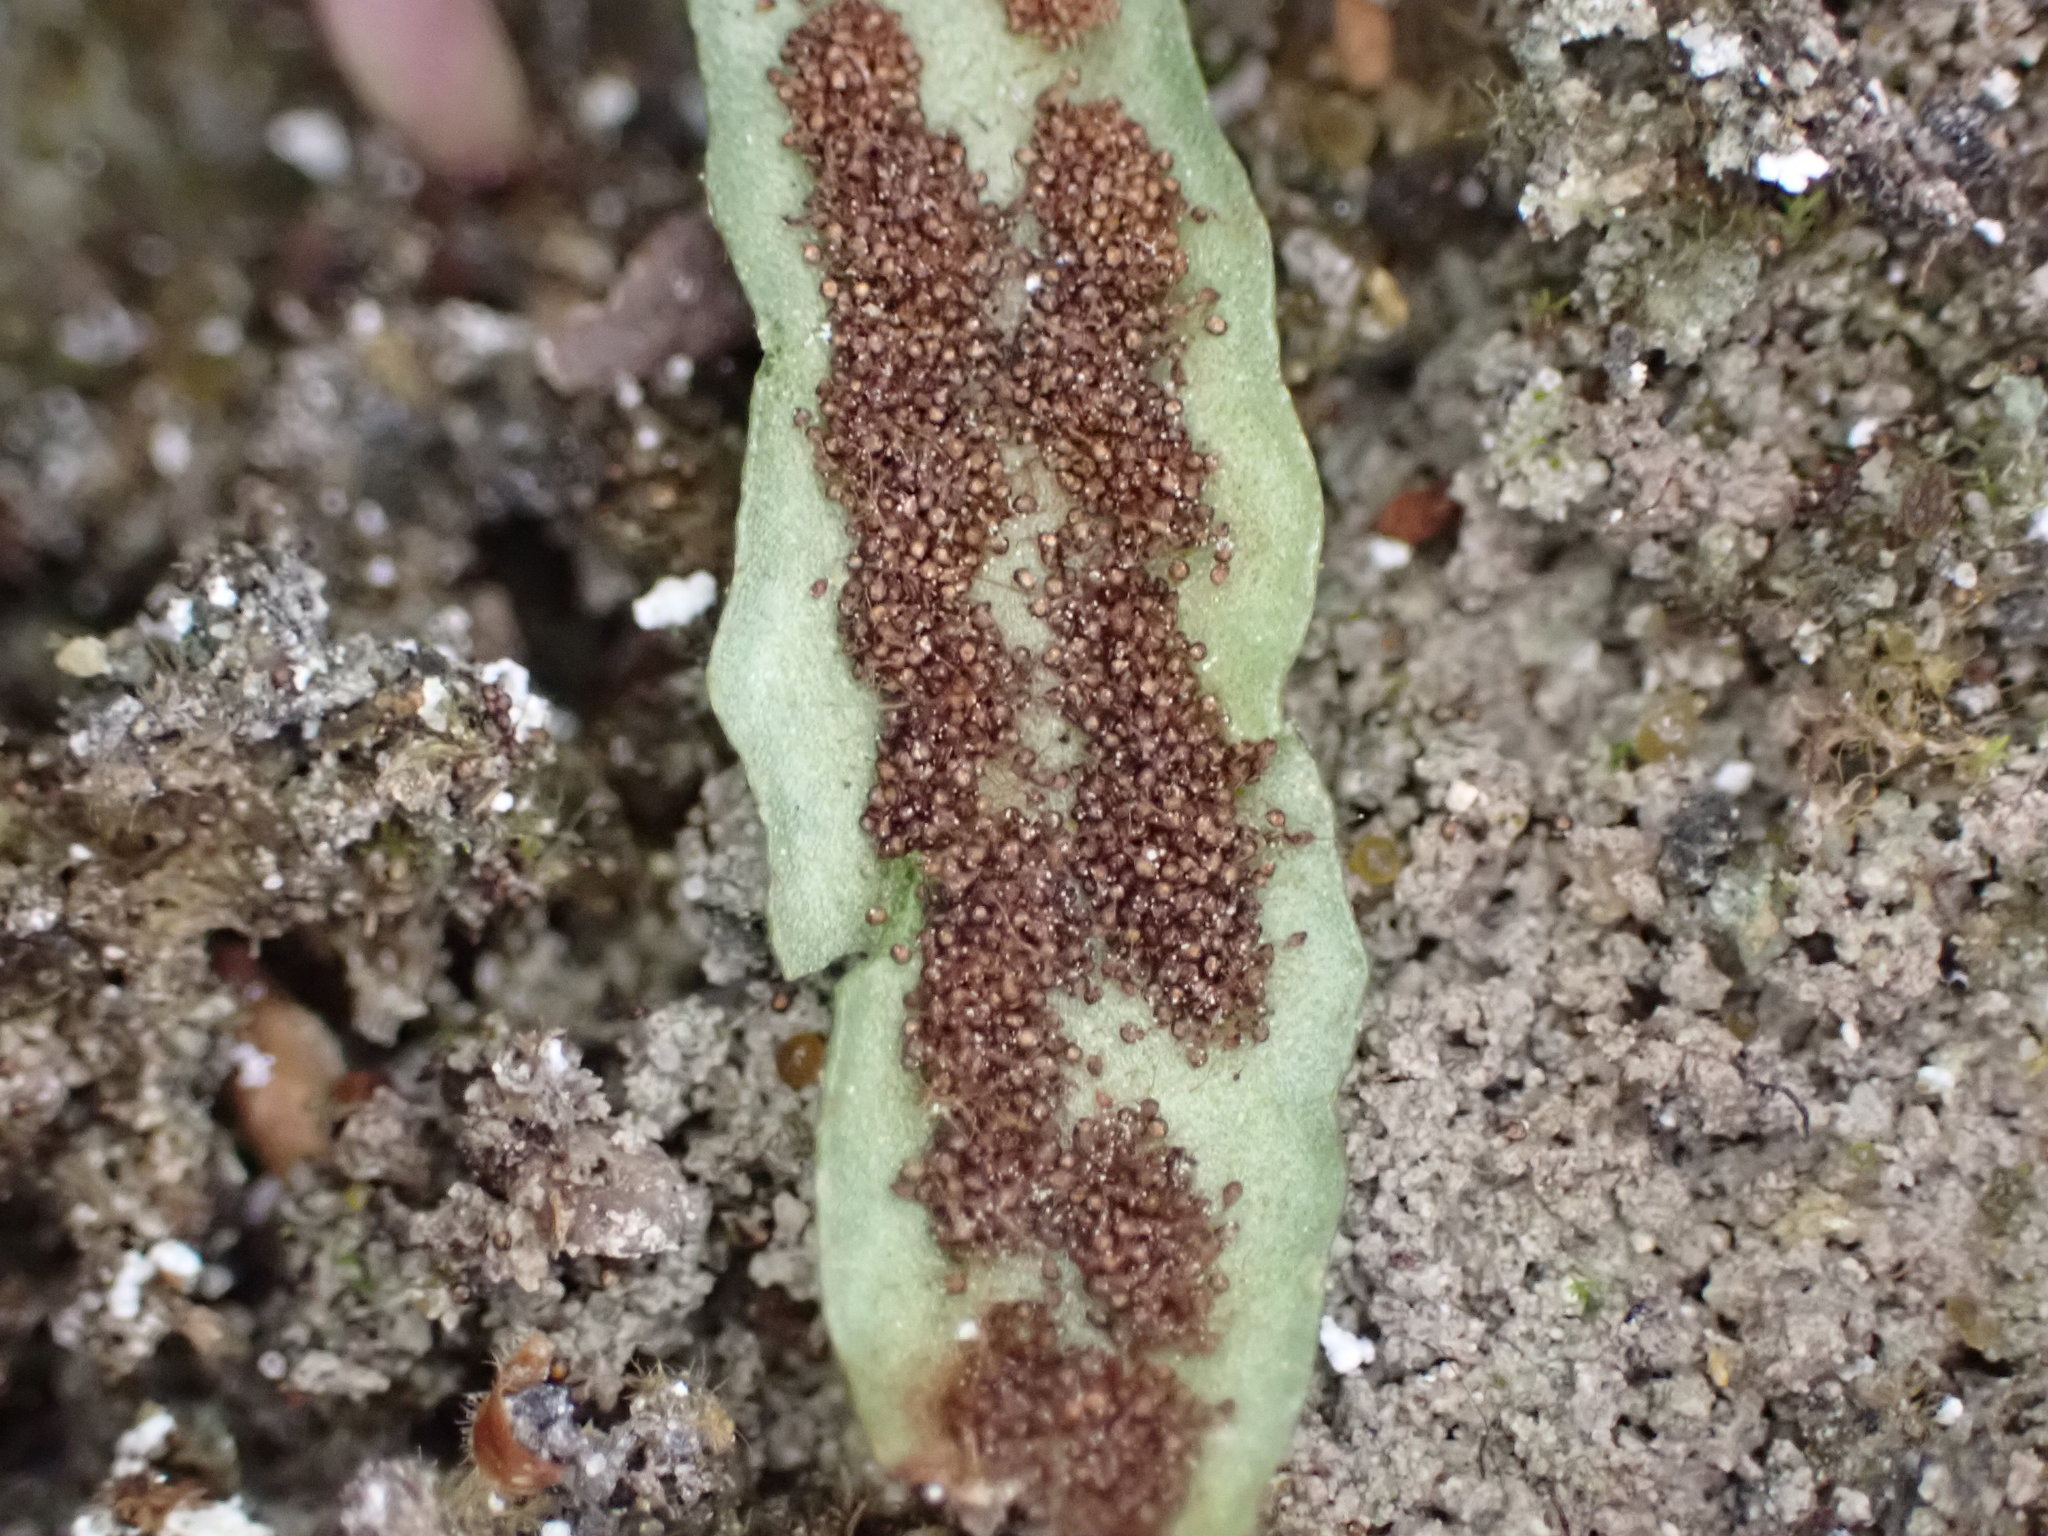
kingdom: Plantae
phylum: Tracheophyta
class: Polypodiopsida
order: Polypodiales
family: Polypodiaceae
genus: Notogrammitis
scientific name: Notogrammitis patagonica
